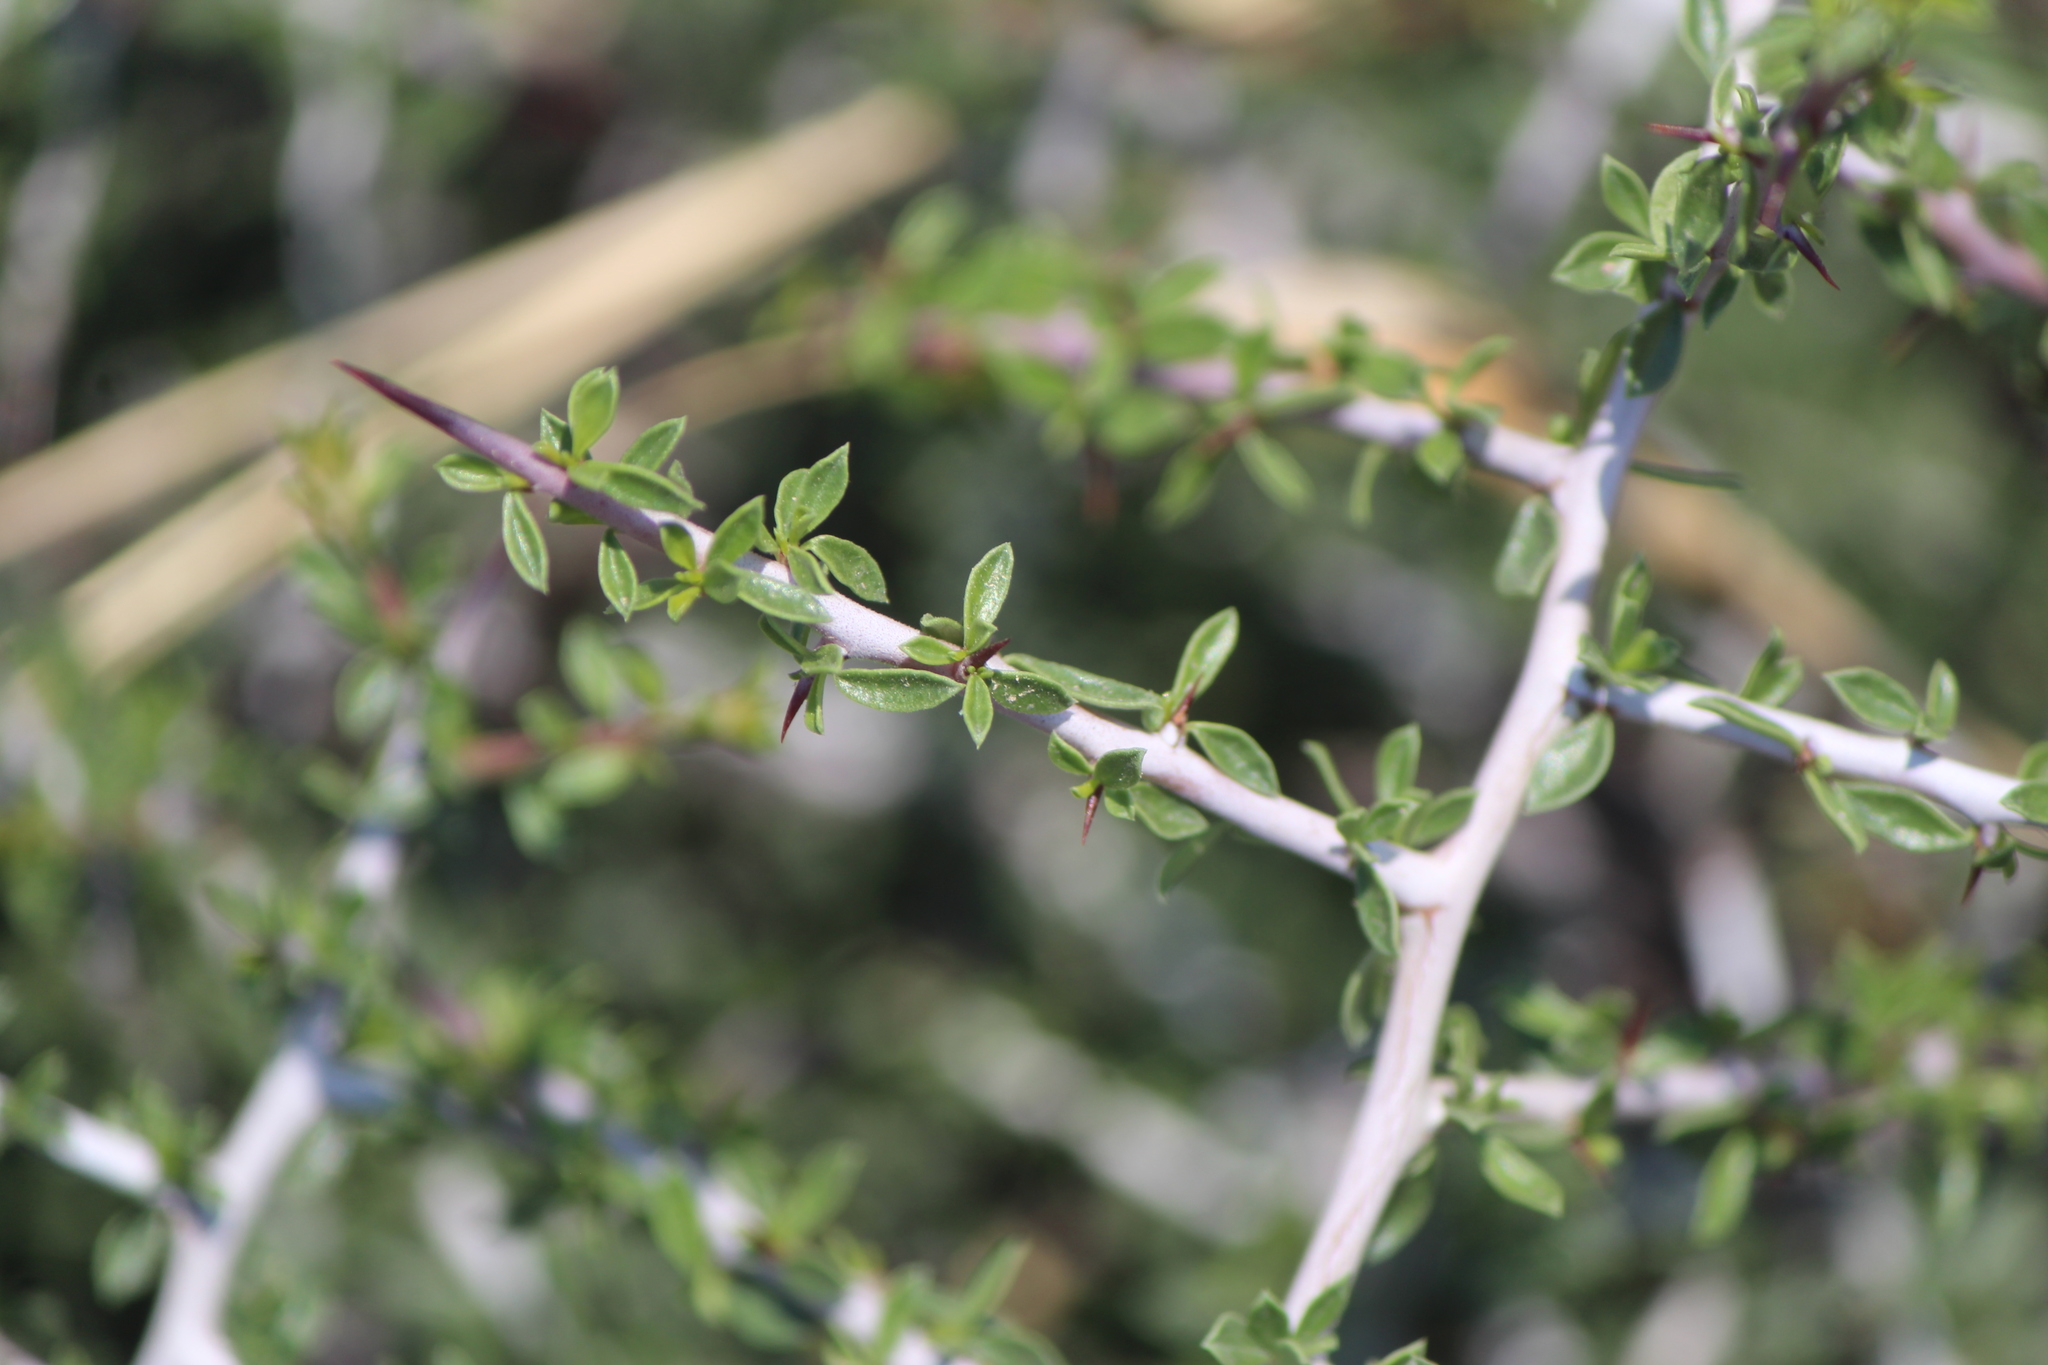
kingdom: Plantae
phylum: Tracheophyta
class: Magnoliopsida
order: Rosales
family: Rhamnaceae
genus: Sarcomphalus
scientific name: Sarcomphalus obtusifolius
